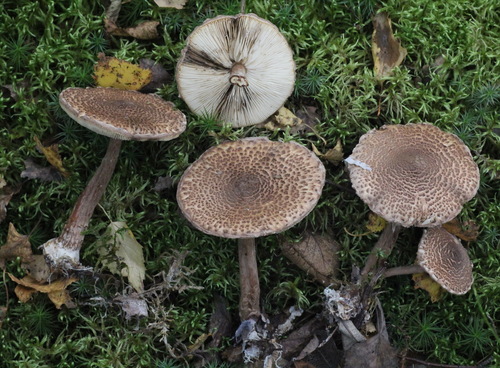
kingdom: Fungi
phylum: Basidiomycota
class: Agaricomycetes
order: Agaricales
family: Agaricaceae
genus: Lepiota
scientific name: Lepiota ochraceofulva
